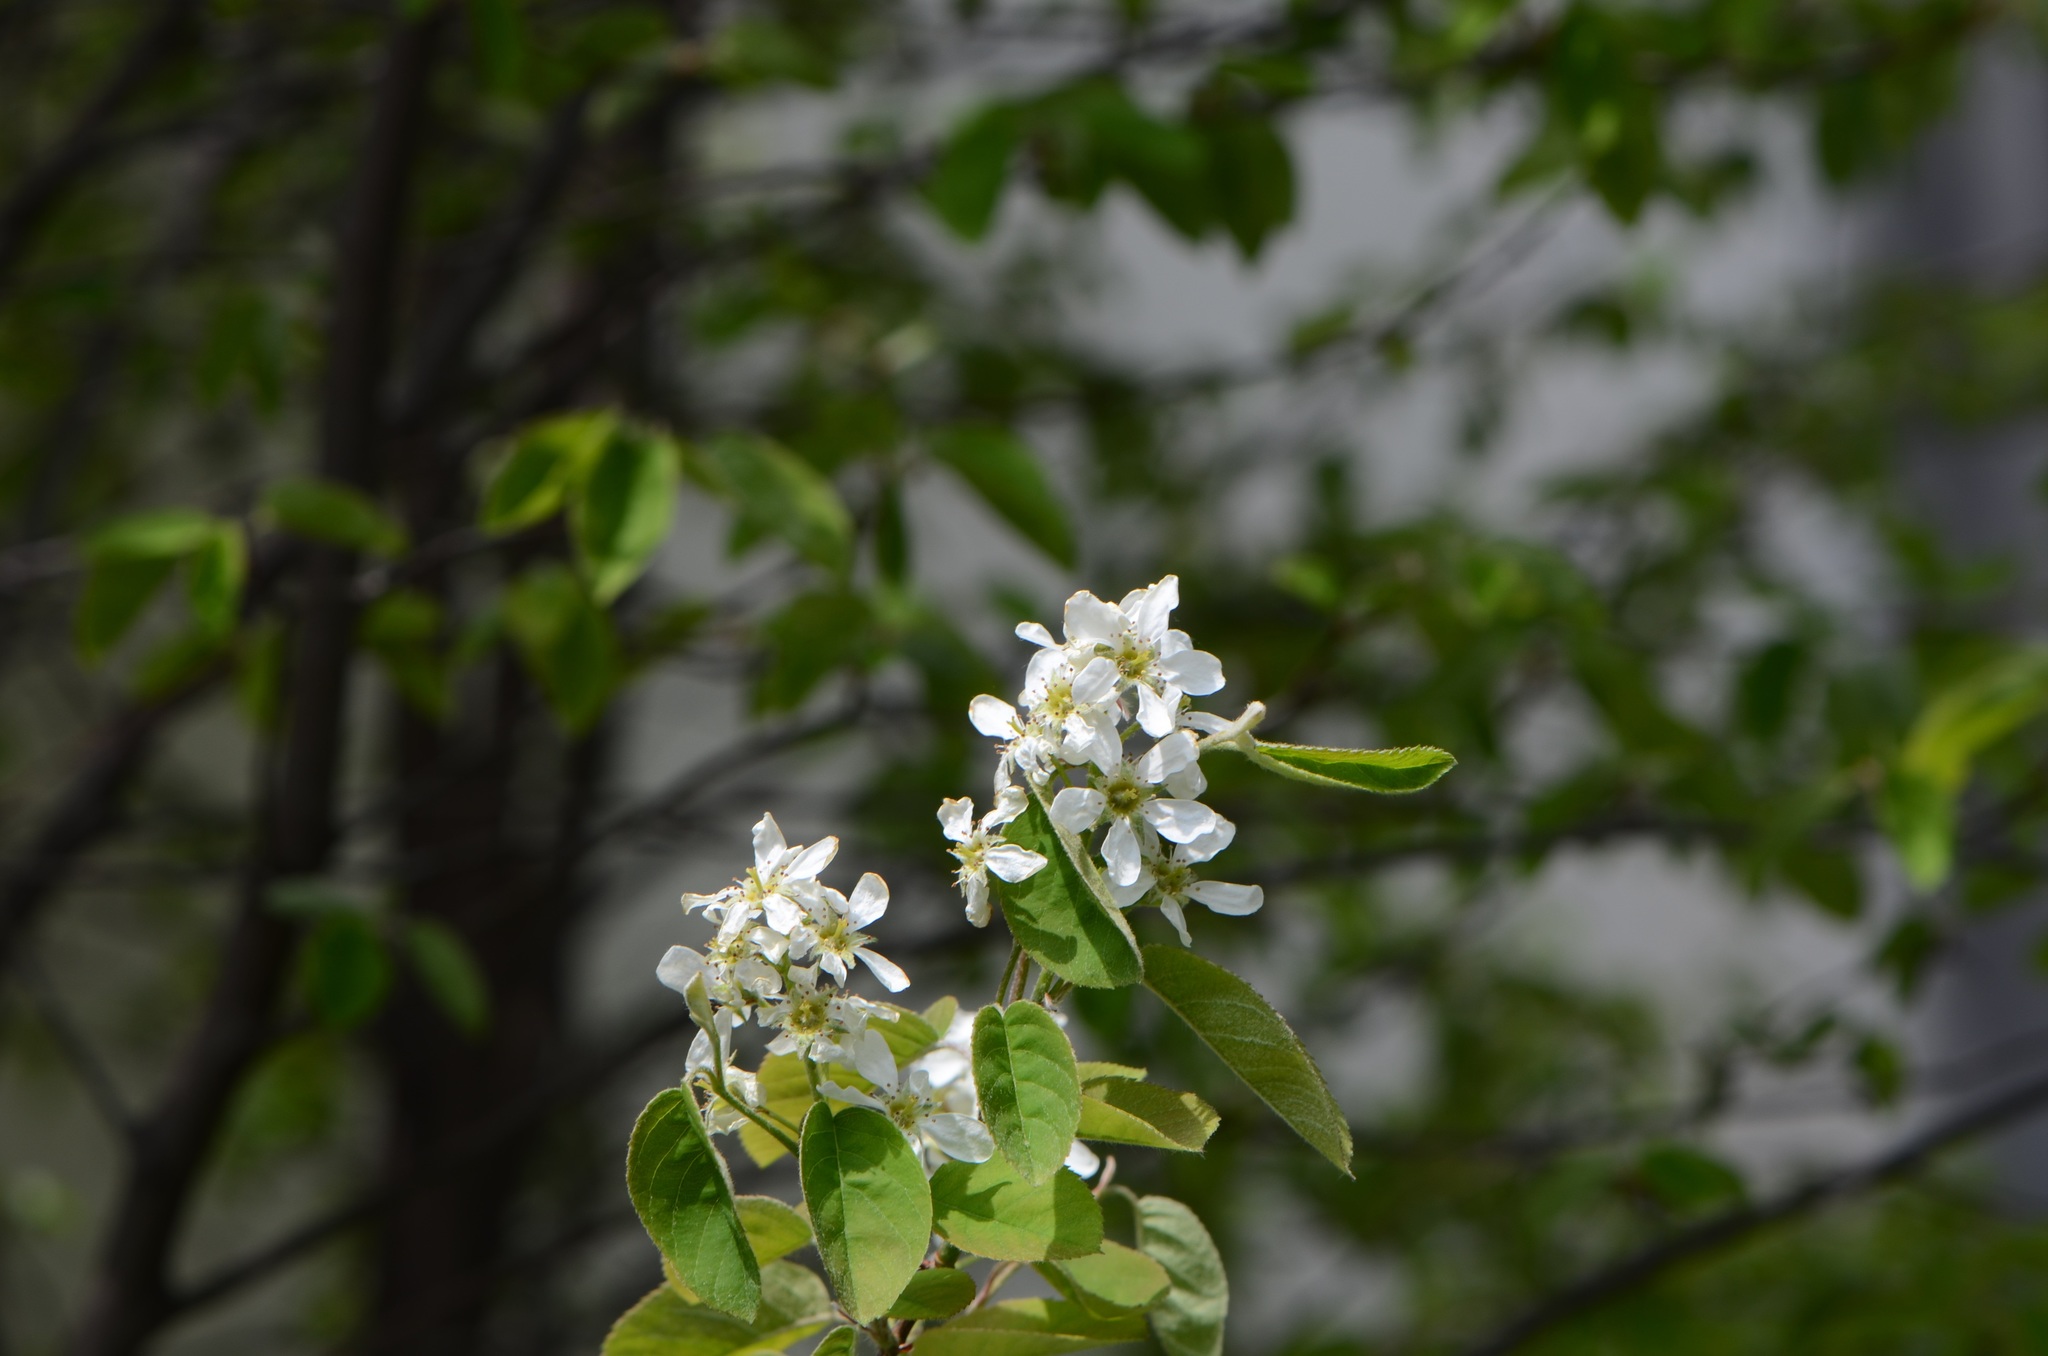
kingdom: Plantae
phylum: Tracheophyta
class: Magnoliopsida
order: Rosales
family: Rosaceae
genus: Amelanchier
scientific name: Amelanchier ovalis
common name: Serviceberry
